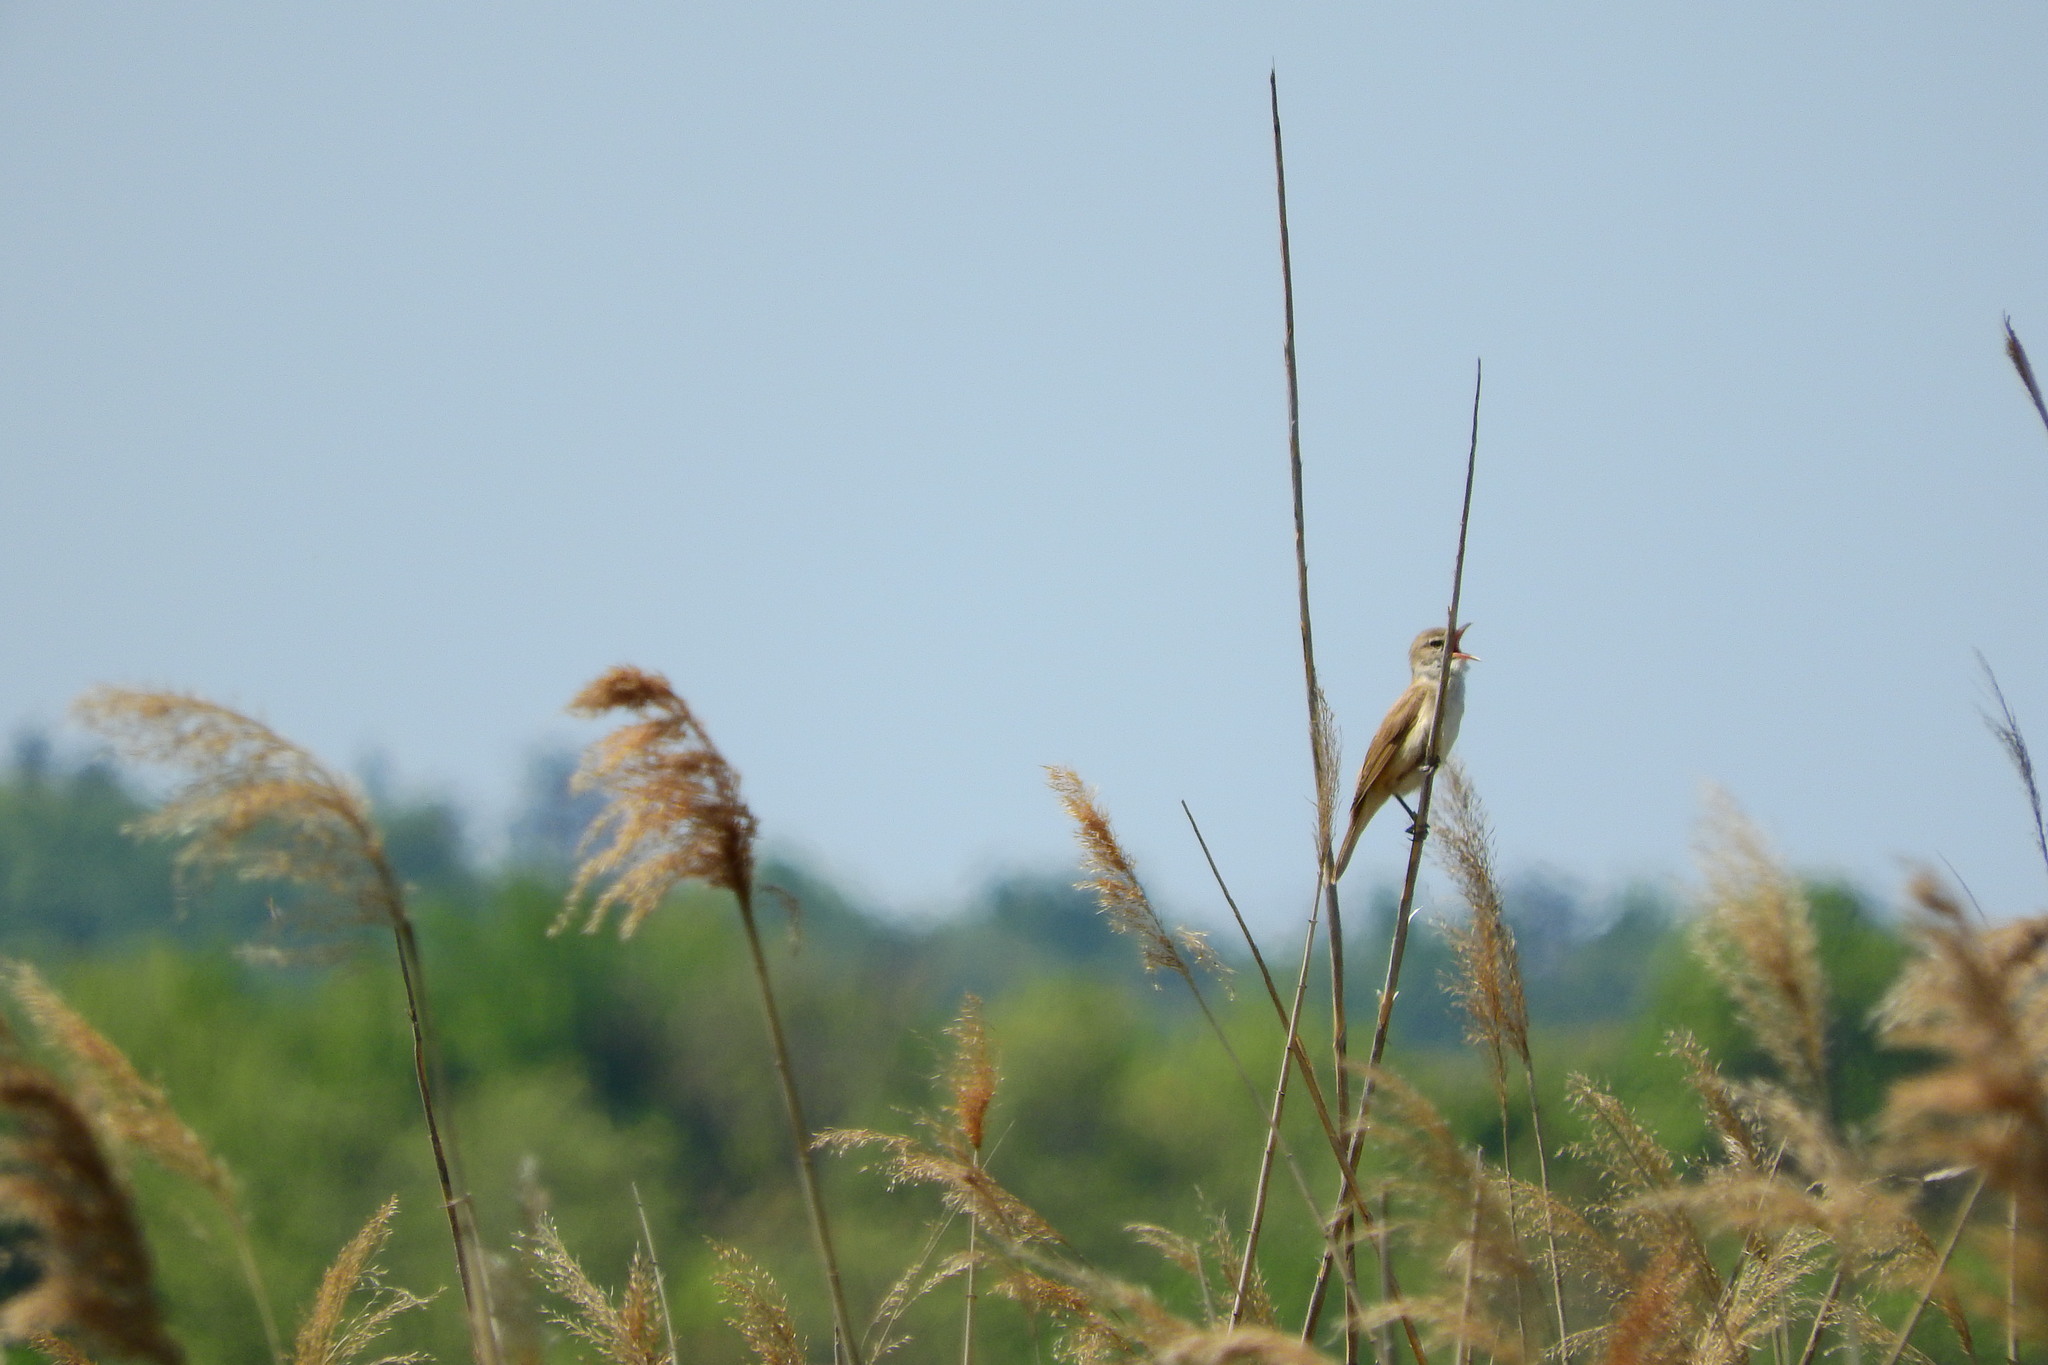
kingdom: Animalia
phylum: Chordata
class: Aves
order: Passeriformes
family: Acrocephalidae
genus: Acrocephalus
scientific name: Acrocephalus scirpaceus
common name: Eurasian reed warbler
